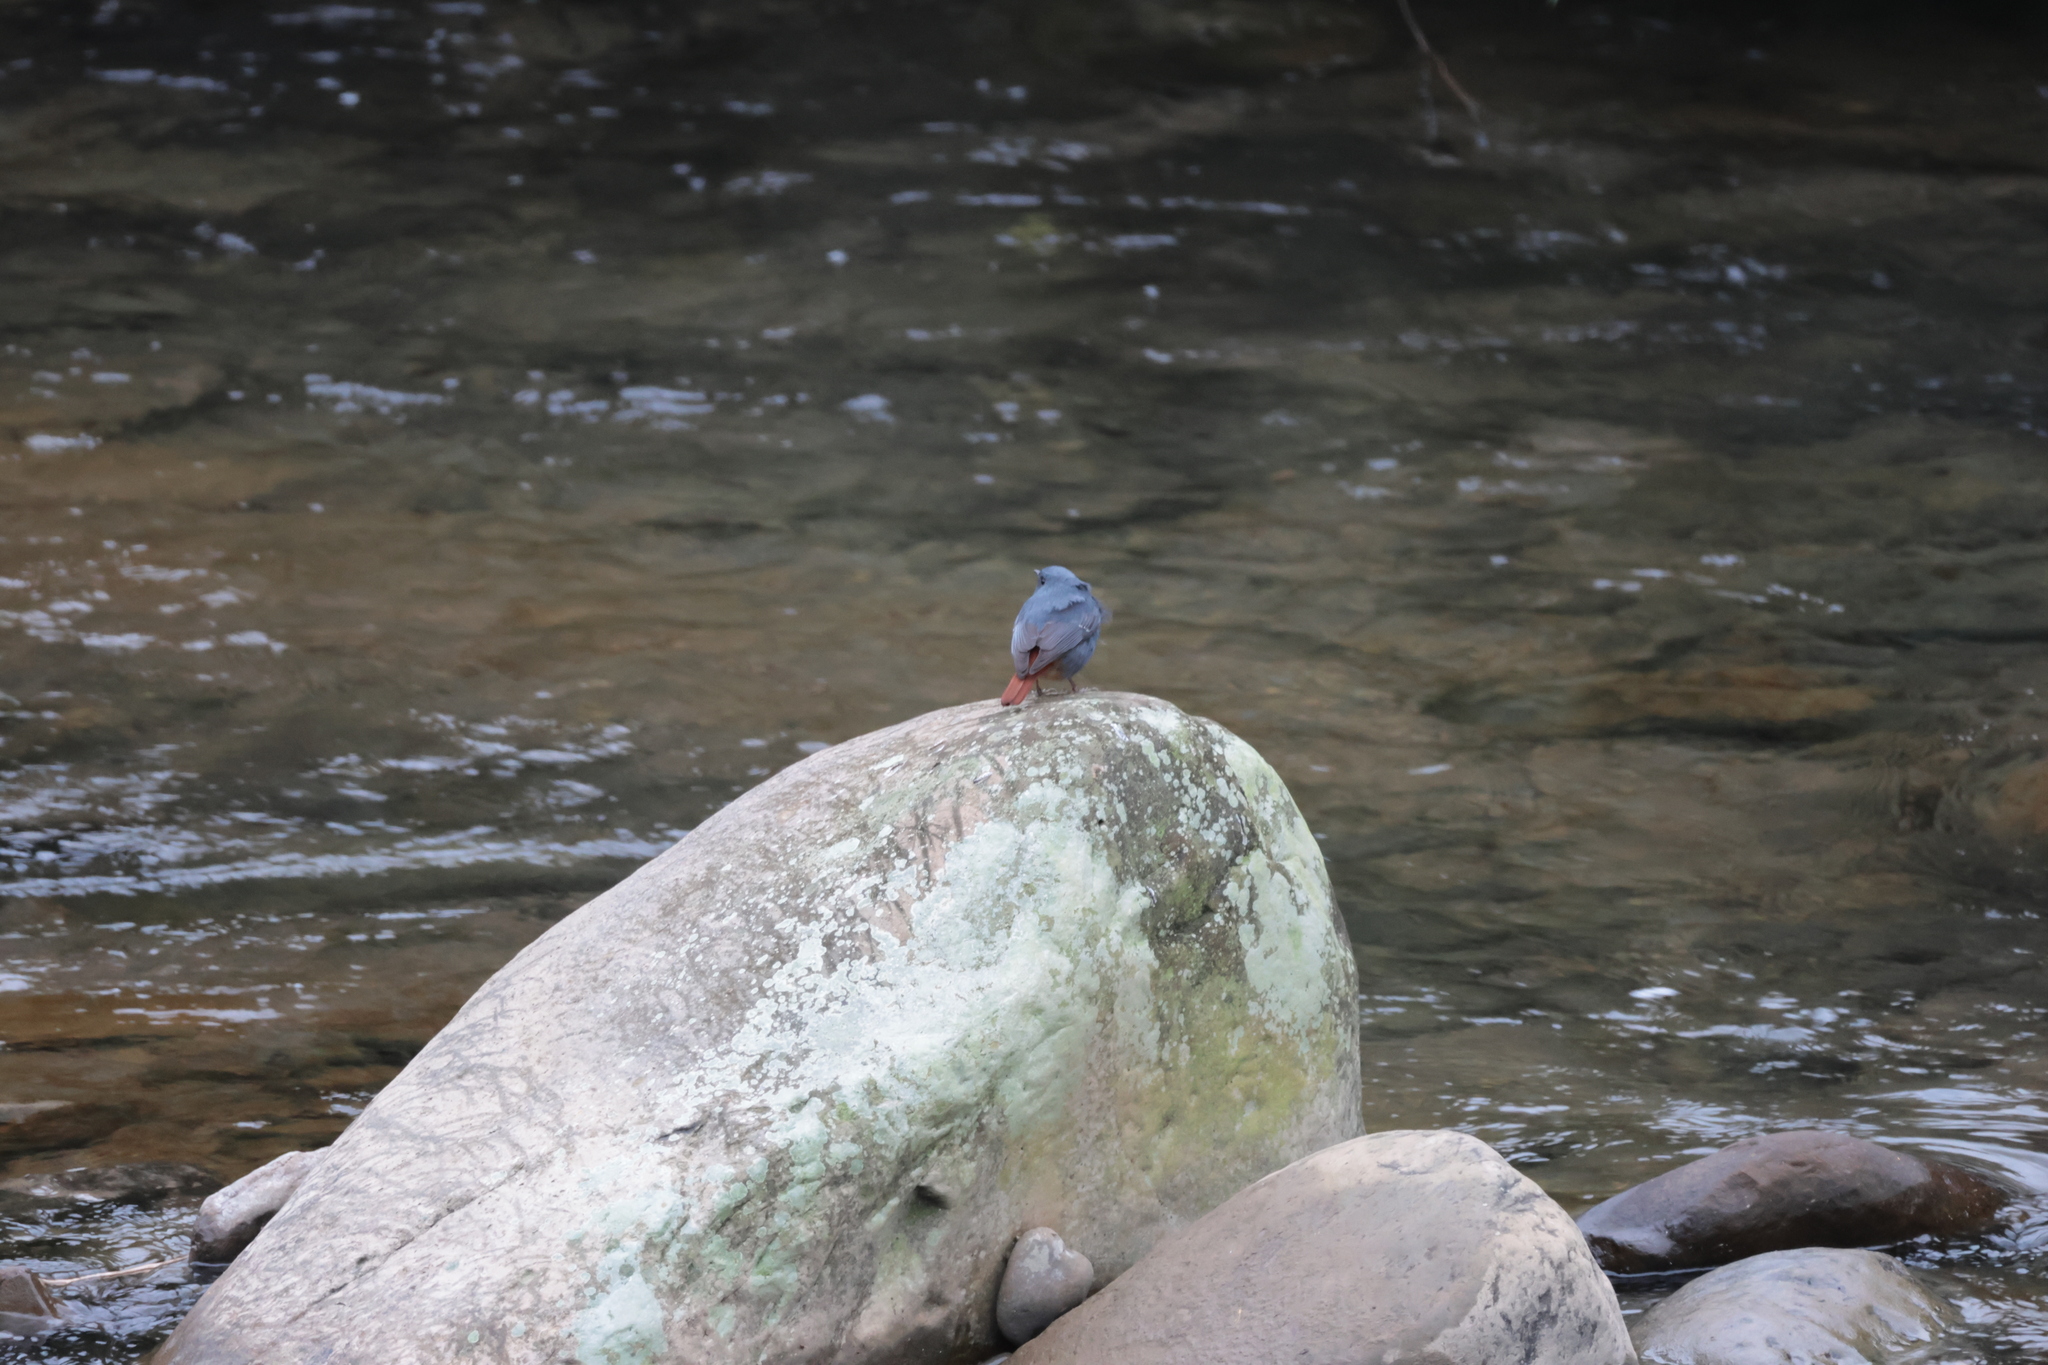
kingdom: Animalia
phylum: Chordata
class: Aves
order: Passeriformes
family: Muscicapidae
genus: Phoenicurus
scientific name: Phoenicurus fuliginosus
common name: Plumbeous water redstart
